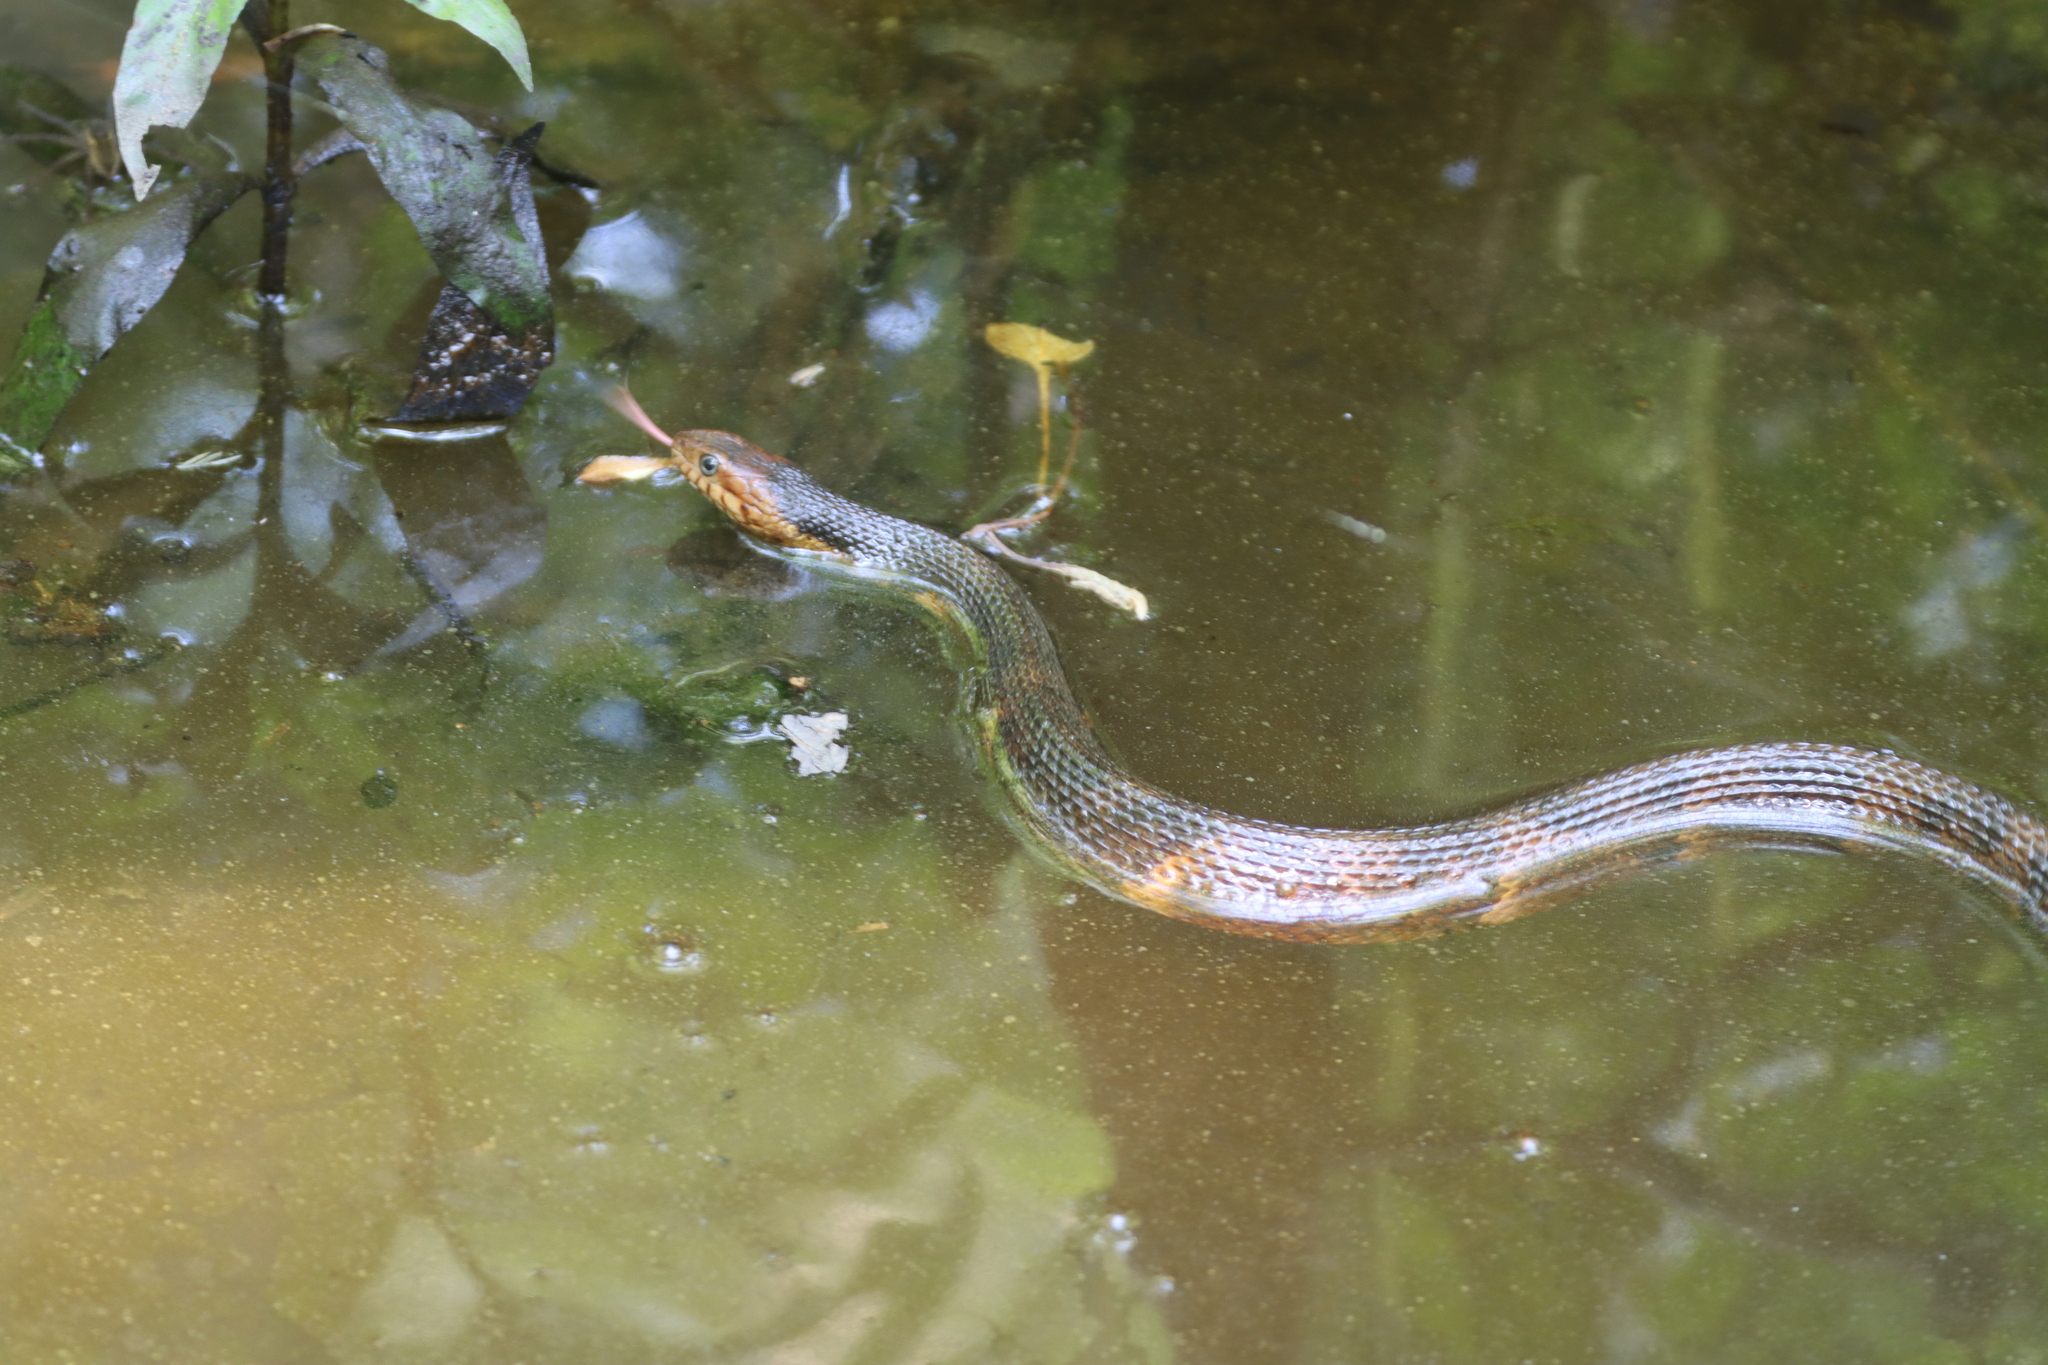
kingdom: Animalia
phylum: Chordata
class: Squamata
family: Colubridae
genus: Nerodia
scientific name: Nerodia fasciata
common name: Southern water snake
